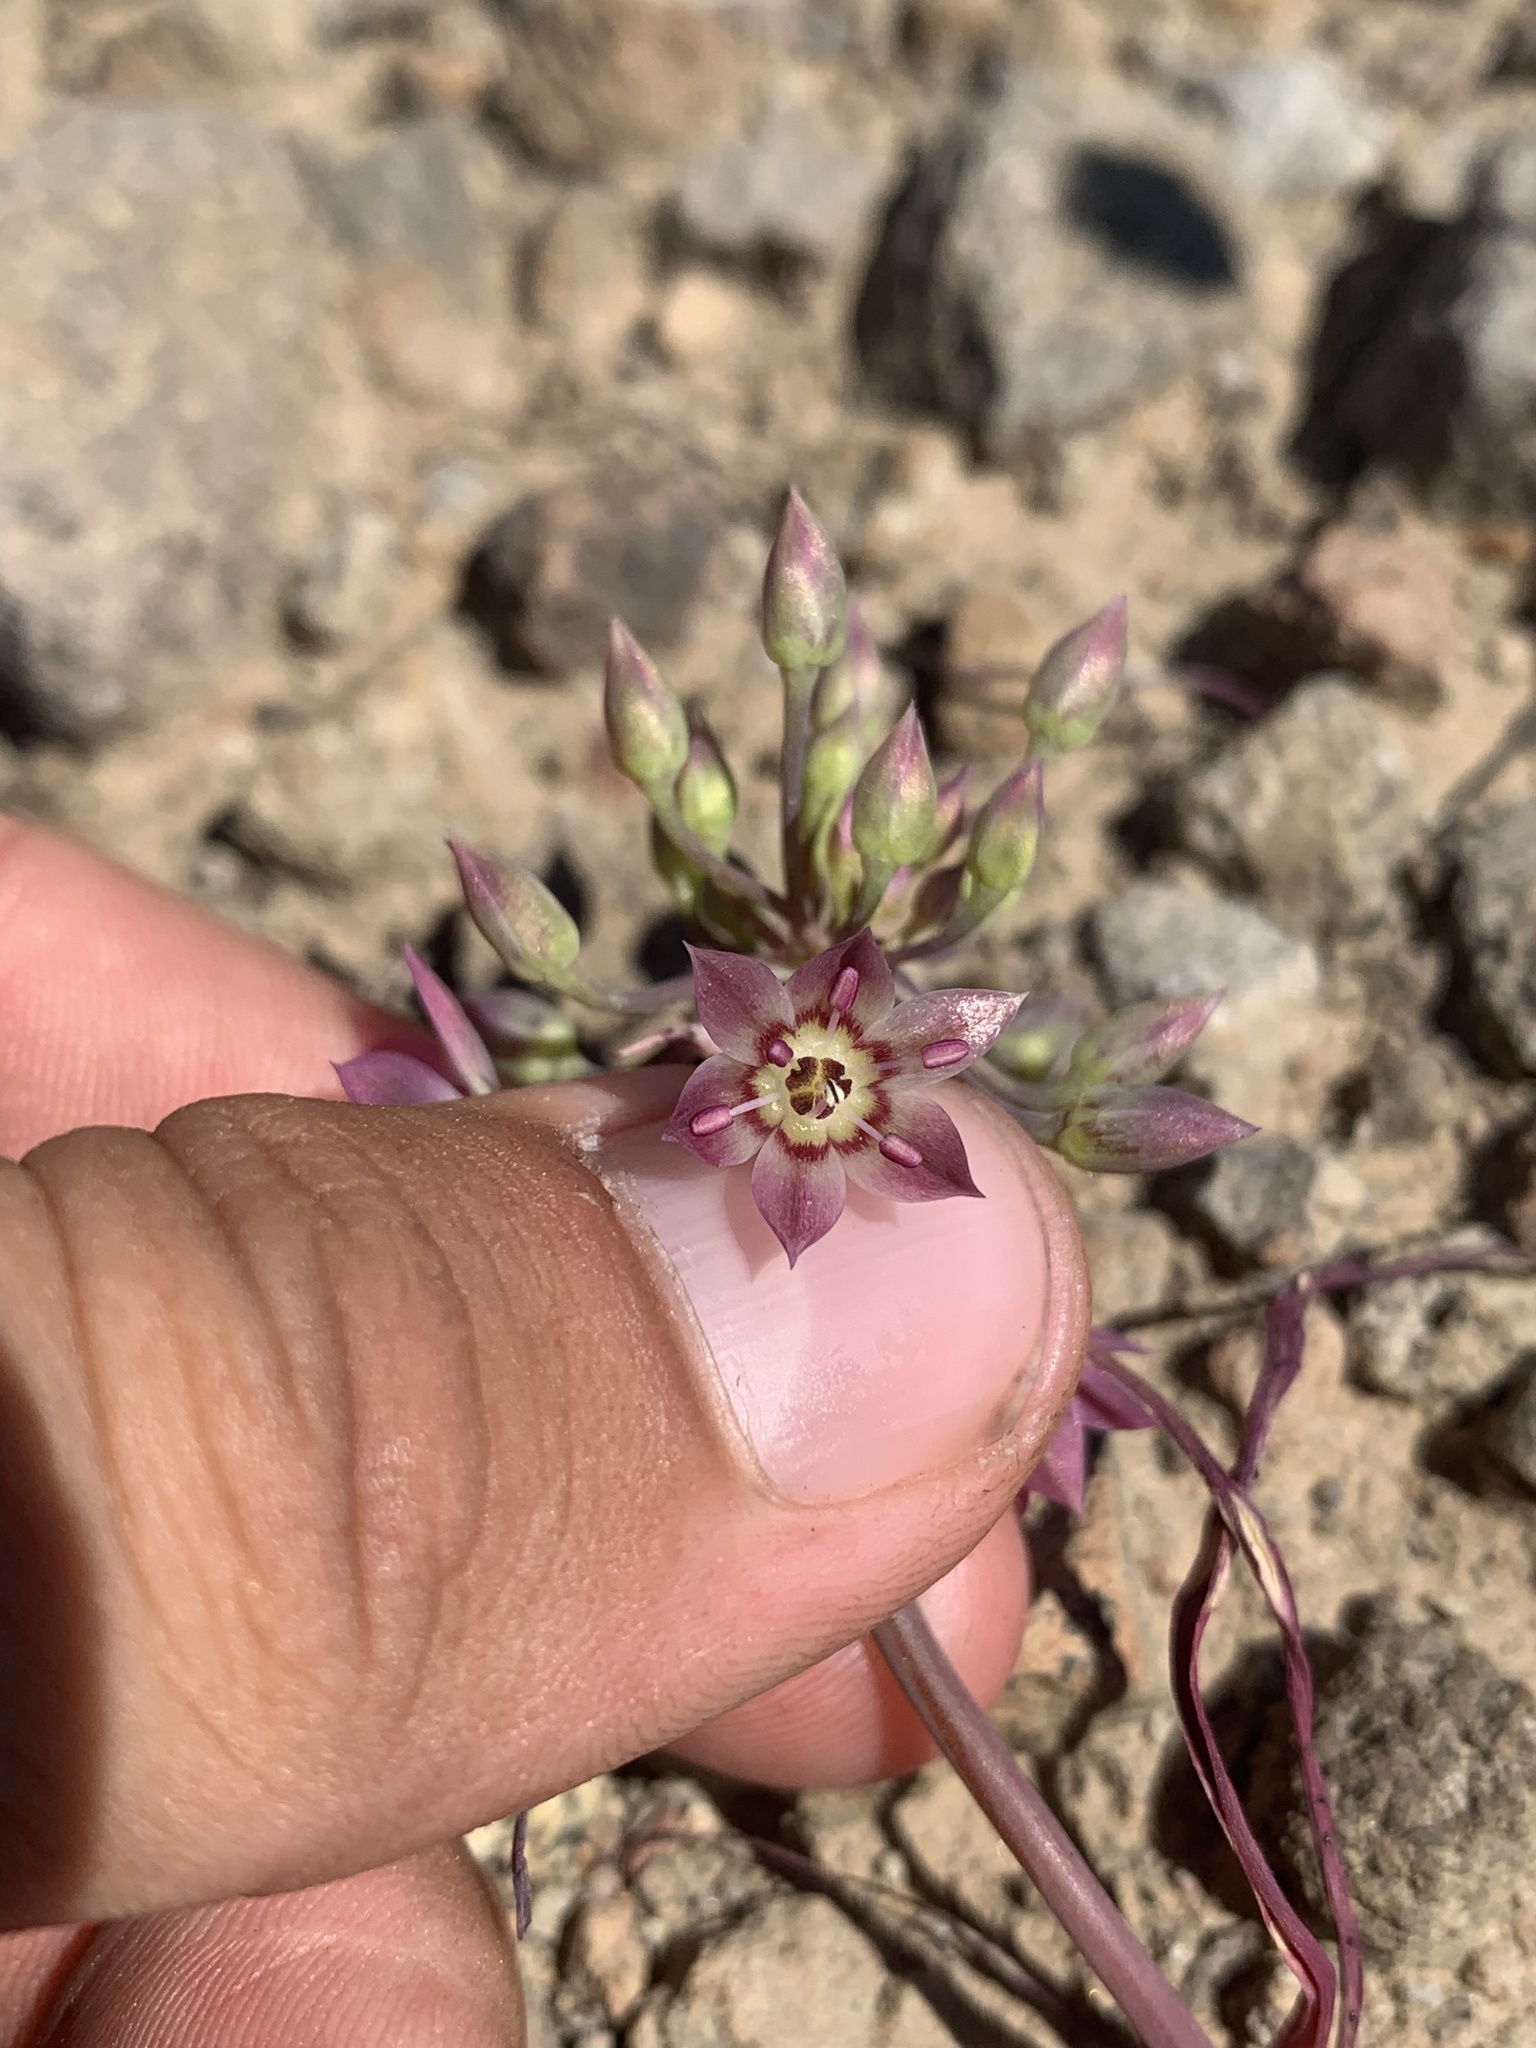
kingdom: Plantae
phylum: Tracheophyta
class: Liliopsida
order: Asparagales
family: Amaryllidaceae
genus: Allium
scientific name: Allium campanulatum
